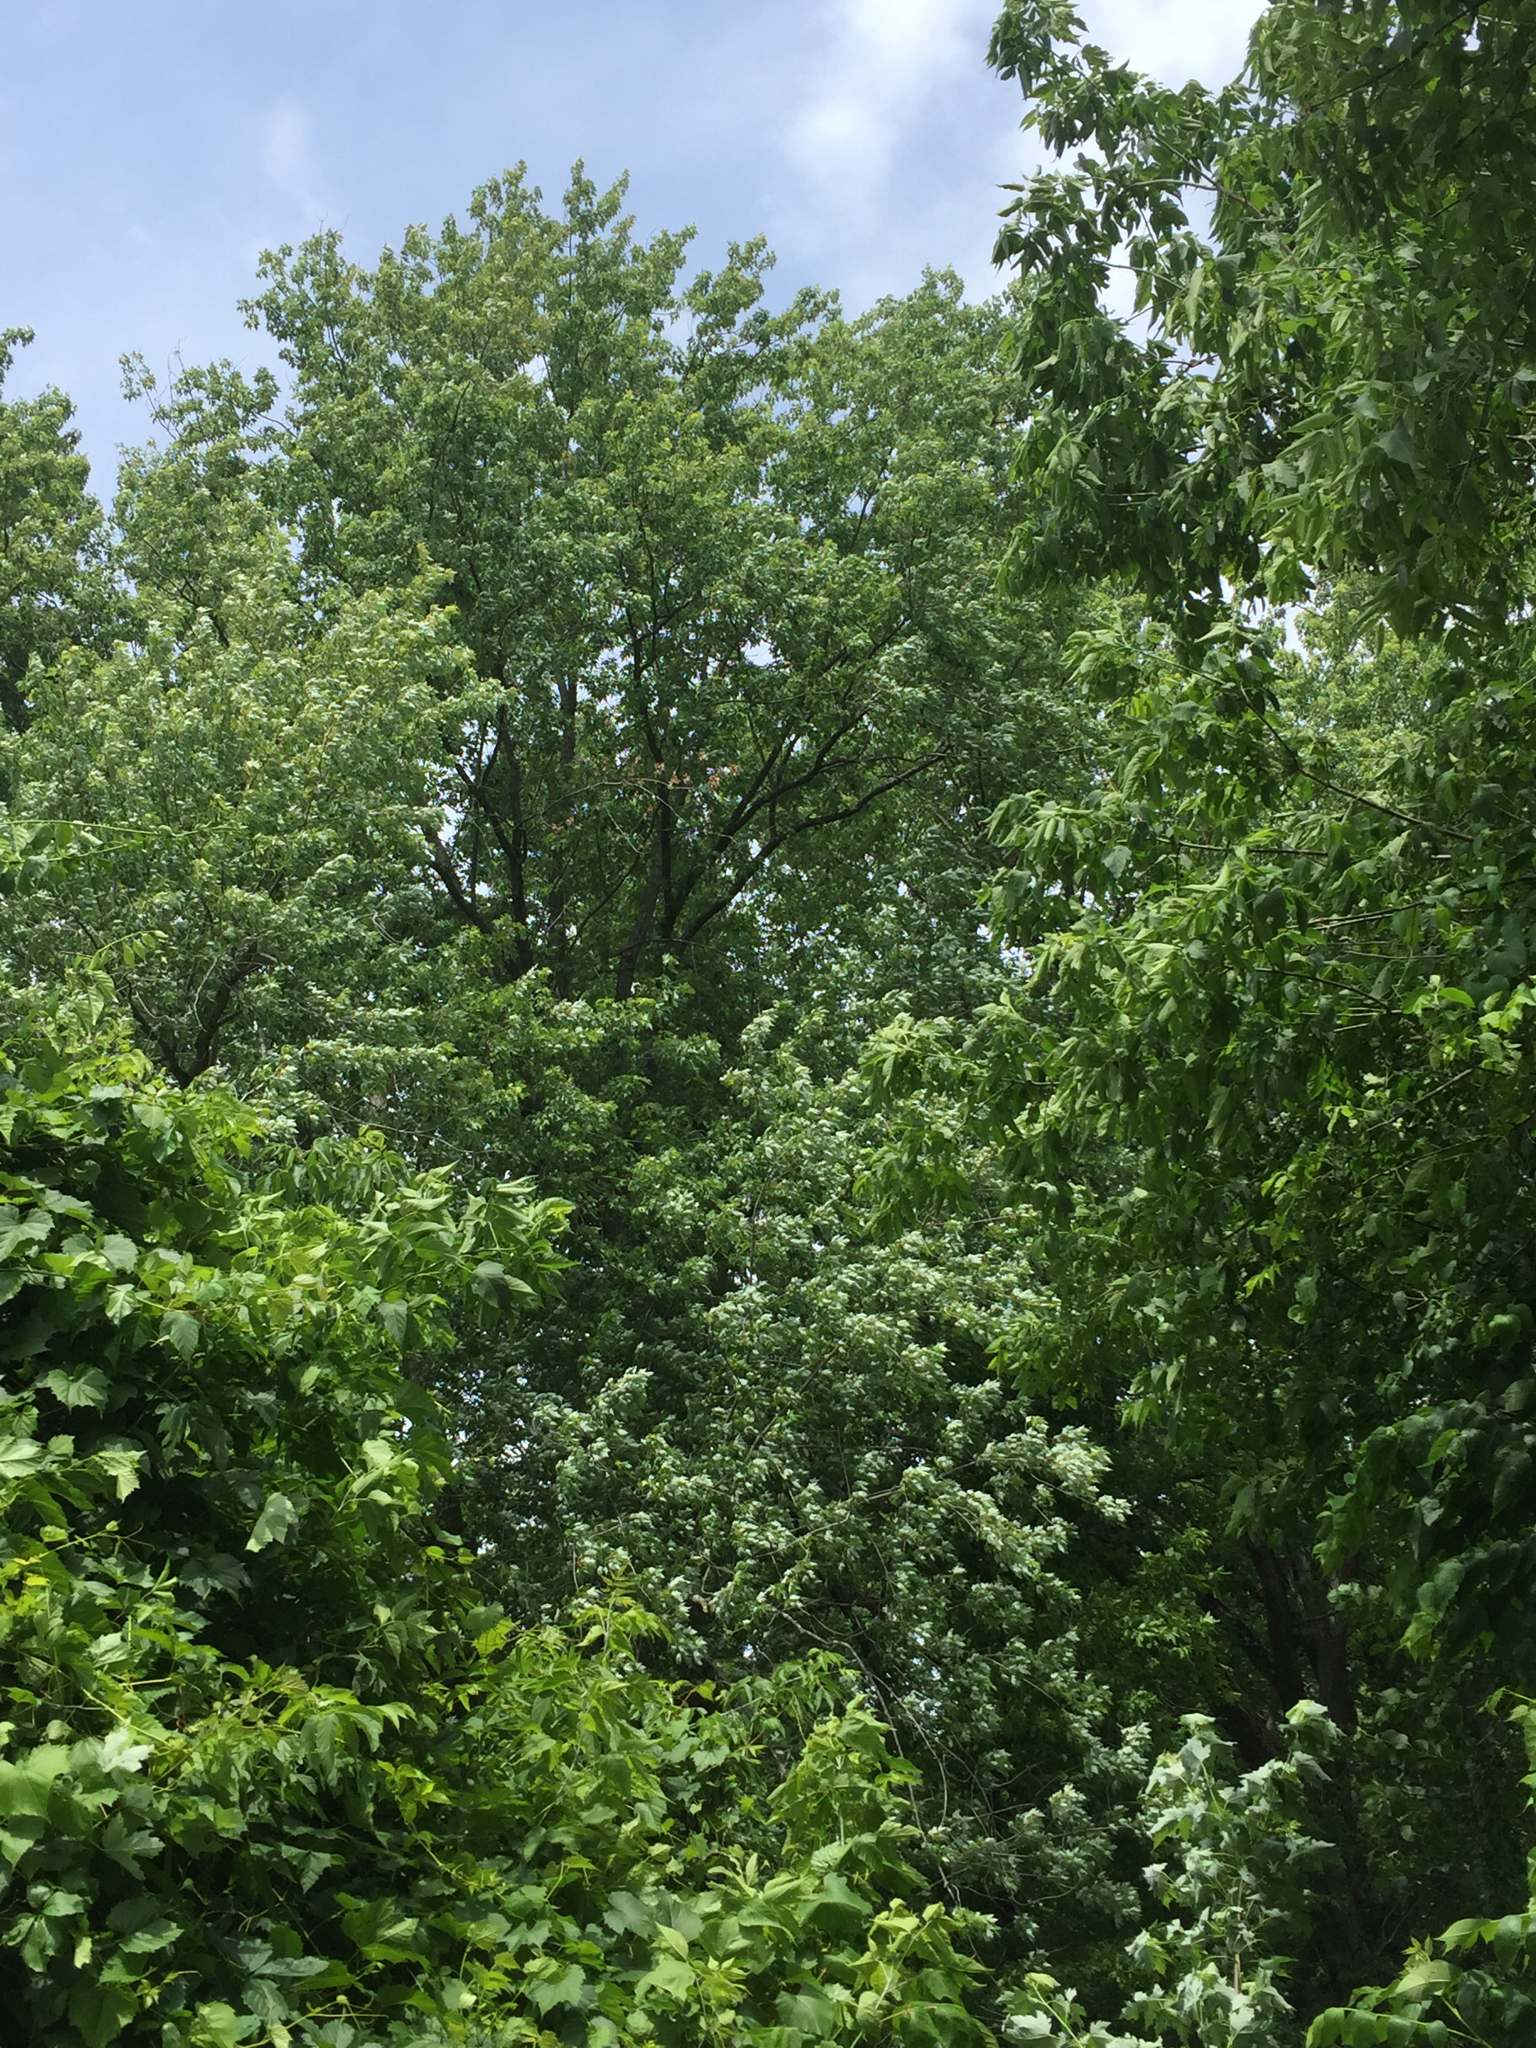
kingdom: Plantae
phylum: Tracheophyta
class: Magnoliopsida
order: Sapindales
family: Sapindaceae
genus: Acer
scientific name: Acer saccharinum
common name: Silver maple
